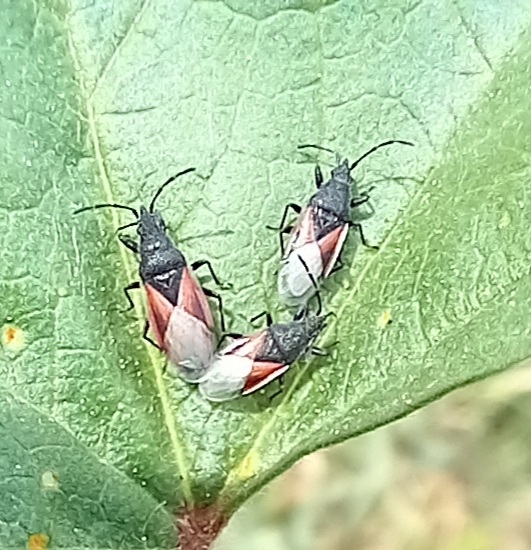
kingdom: Animalia
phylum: Arthropoda
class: Insecta
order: Hemiptera
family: Oxycarenidae
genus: Oxycarenus
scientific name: Oxycarenus lavaterae
